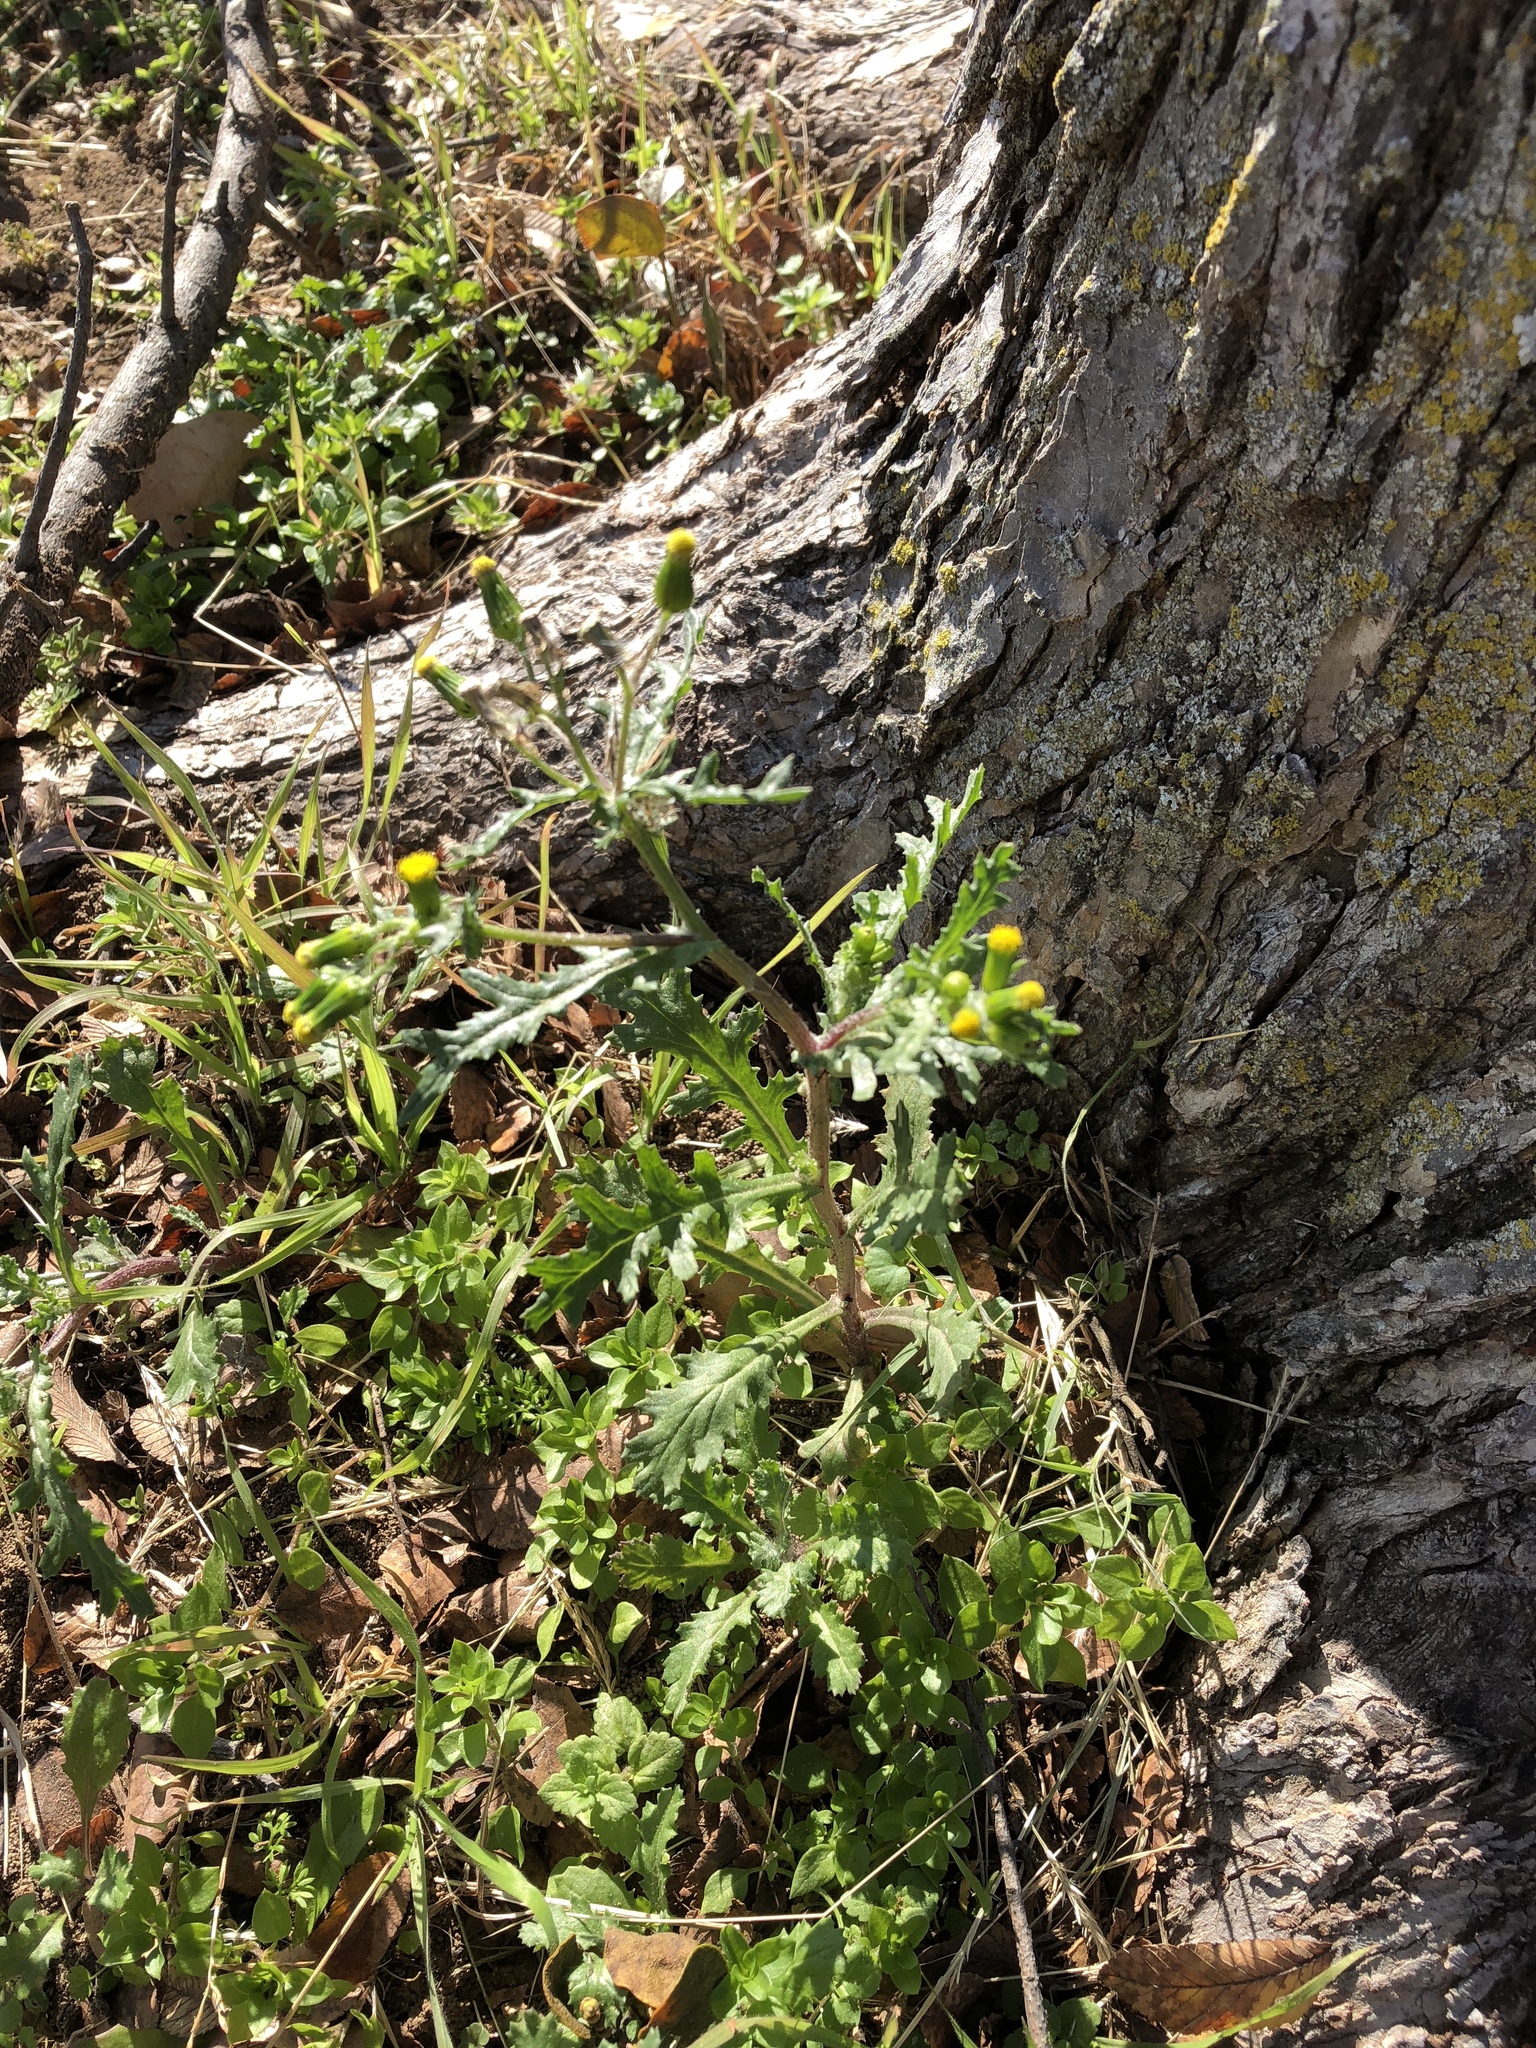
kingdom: Plantae
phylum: Tracheophyta
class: Magnoliopsida
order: Asterales
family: Asteraceae
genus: Senecio
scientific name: Senecio vulgaris
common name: Old-man-in-the-spring
